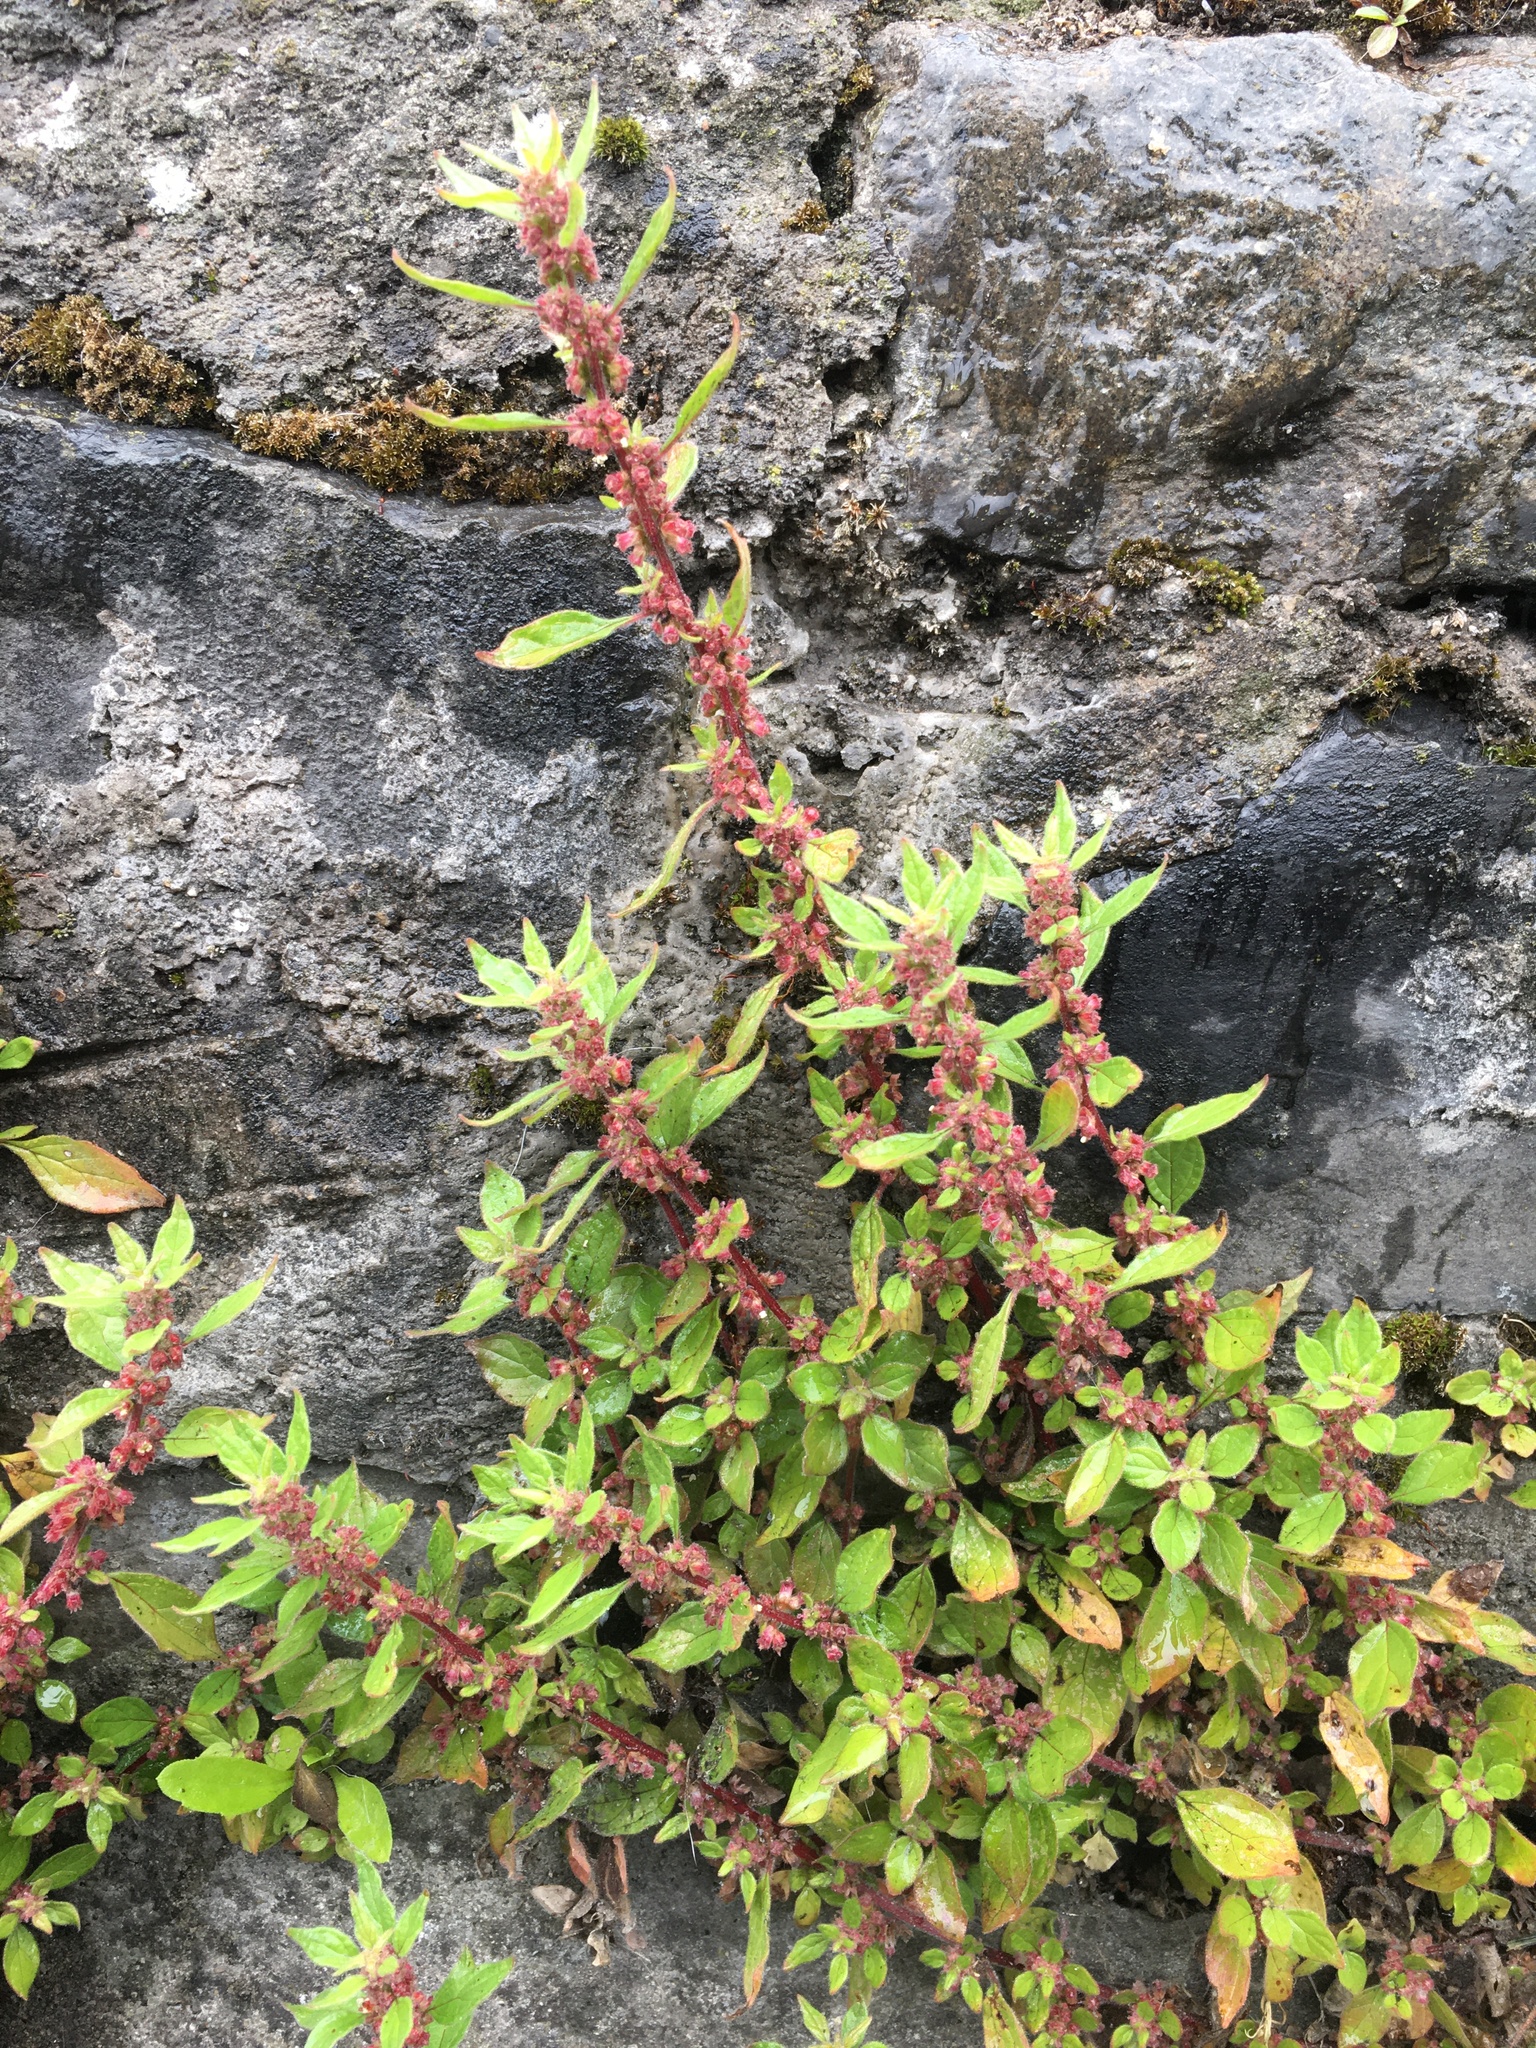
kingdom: Plantae
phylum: Tracheophyta
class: Magnoliopsida
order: Rosales
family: Urticaceae
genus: Parietaria
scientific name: Parietaria judaica
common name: Pellitory-of-the-wall
